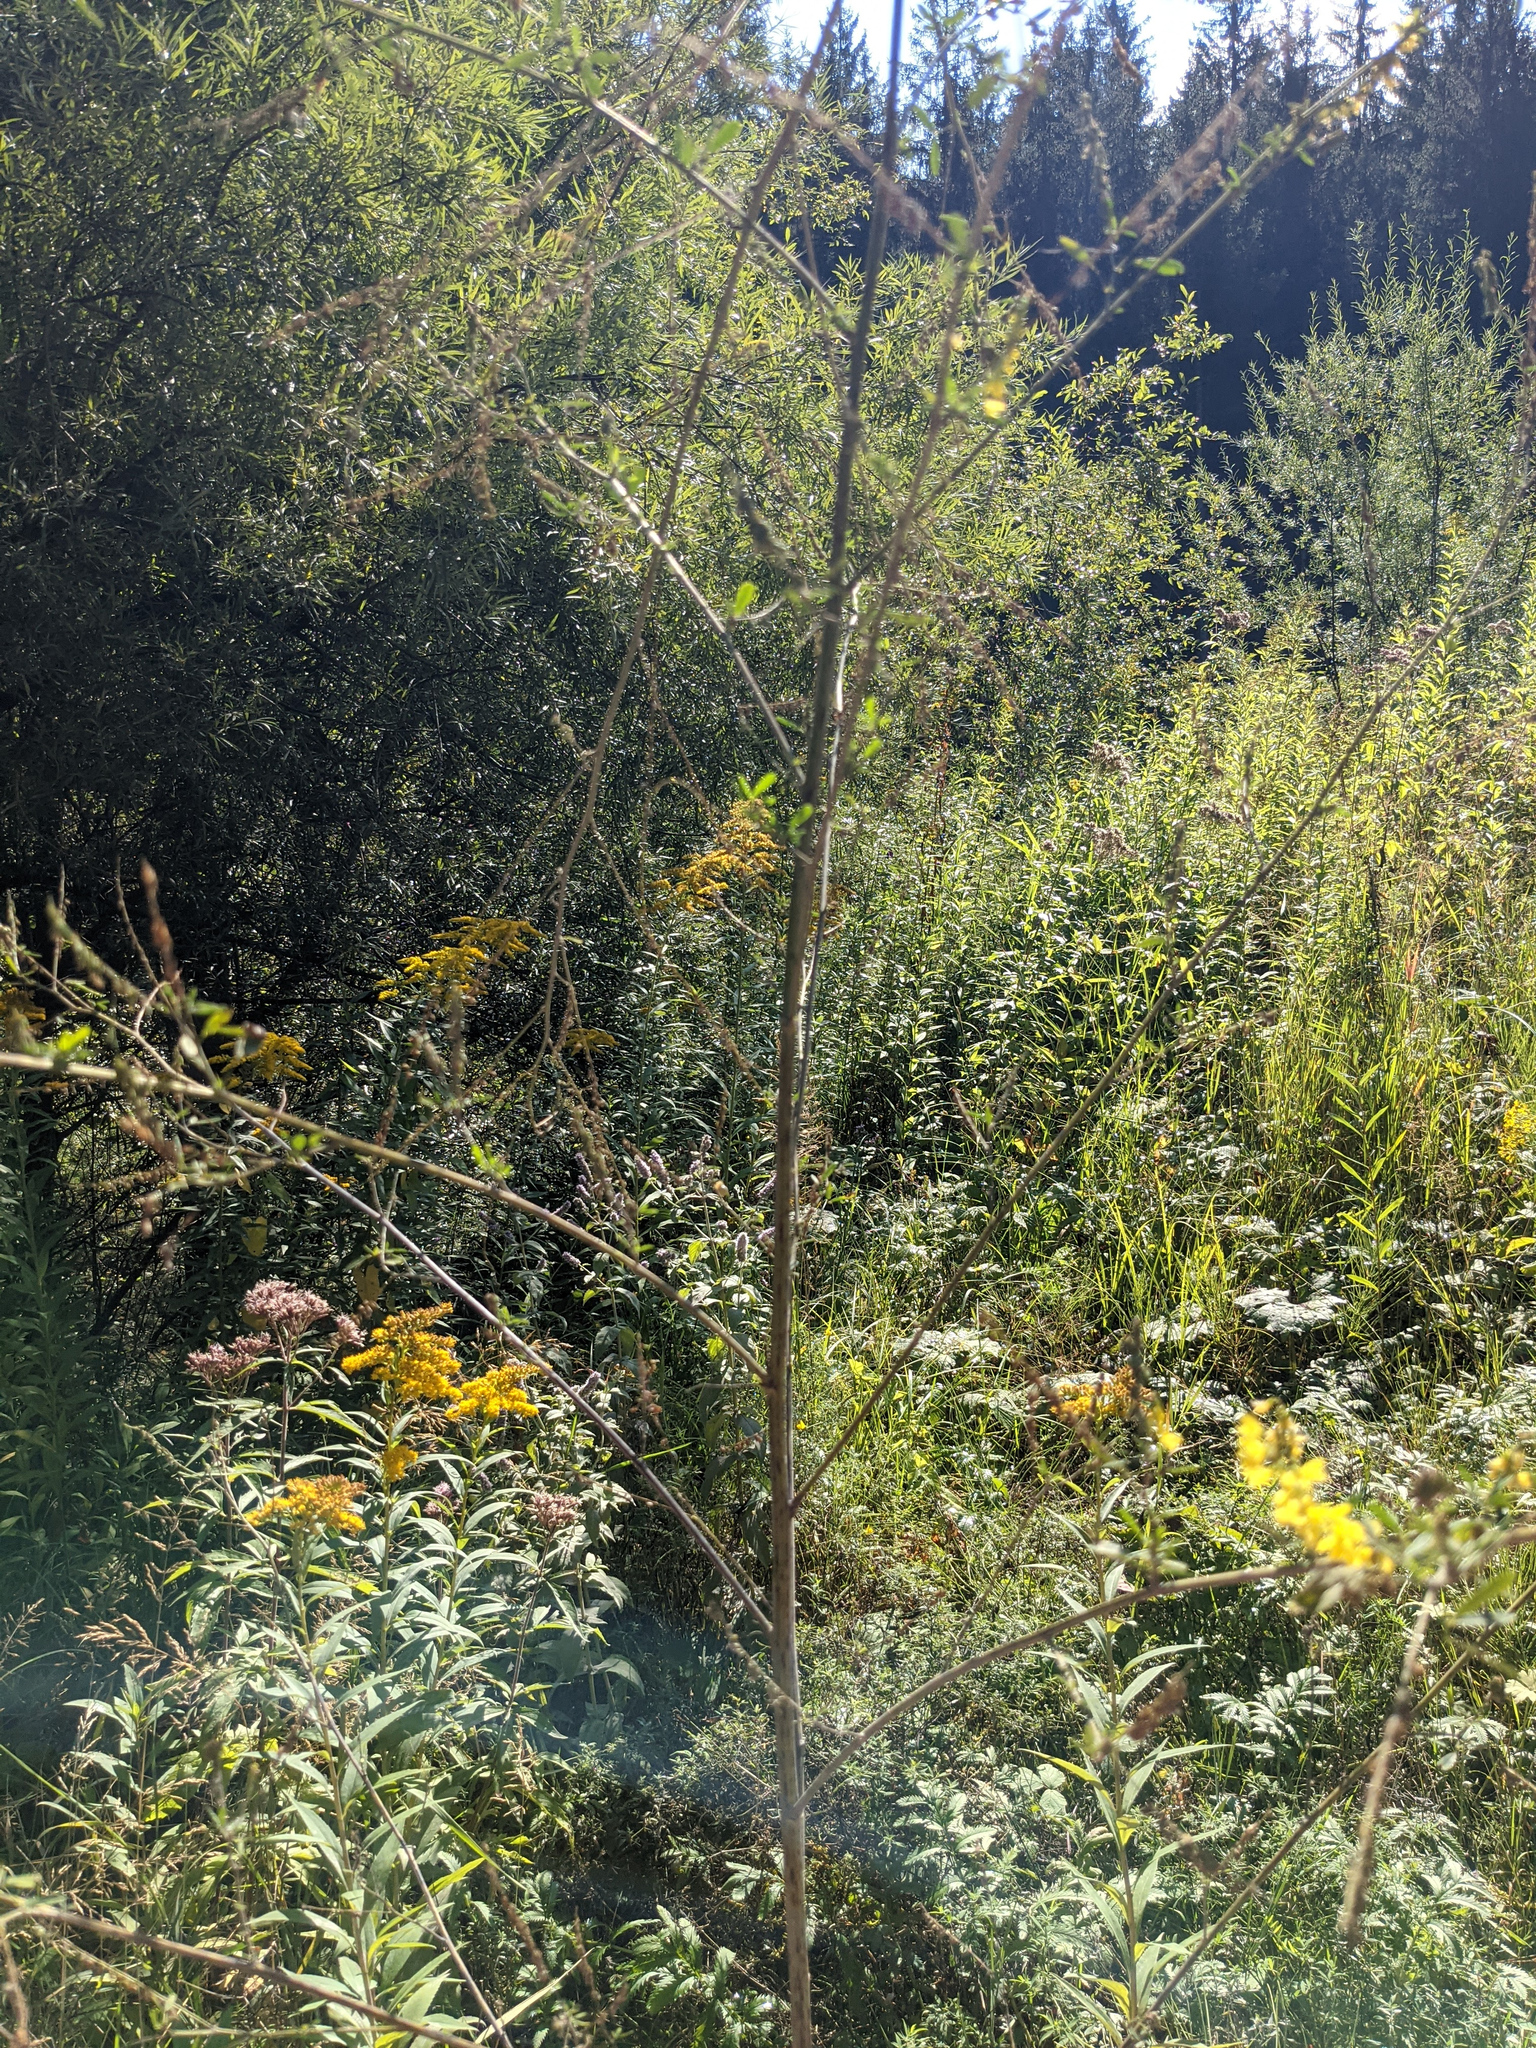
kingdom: Plantae
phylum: Tracheophyta
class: Magnoliopsida
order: Fabales
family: Fabaceae
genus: Melilotus
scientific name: Melilotus officinalis
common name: Sweetclover
